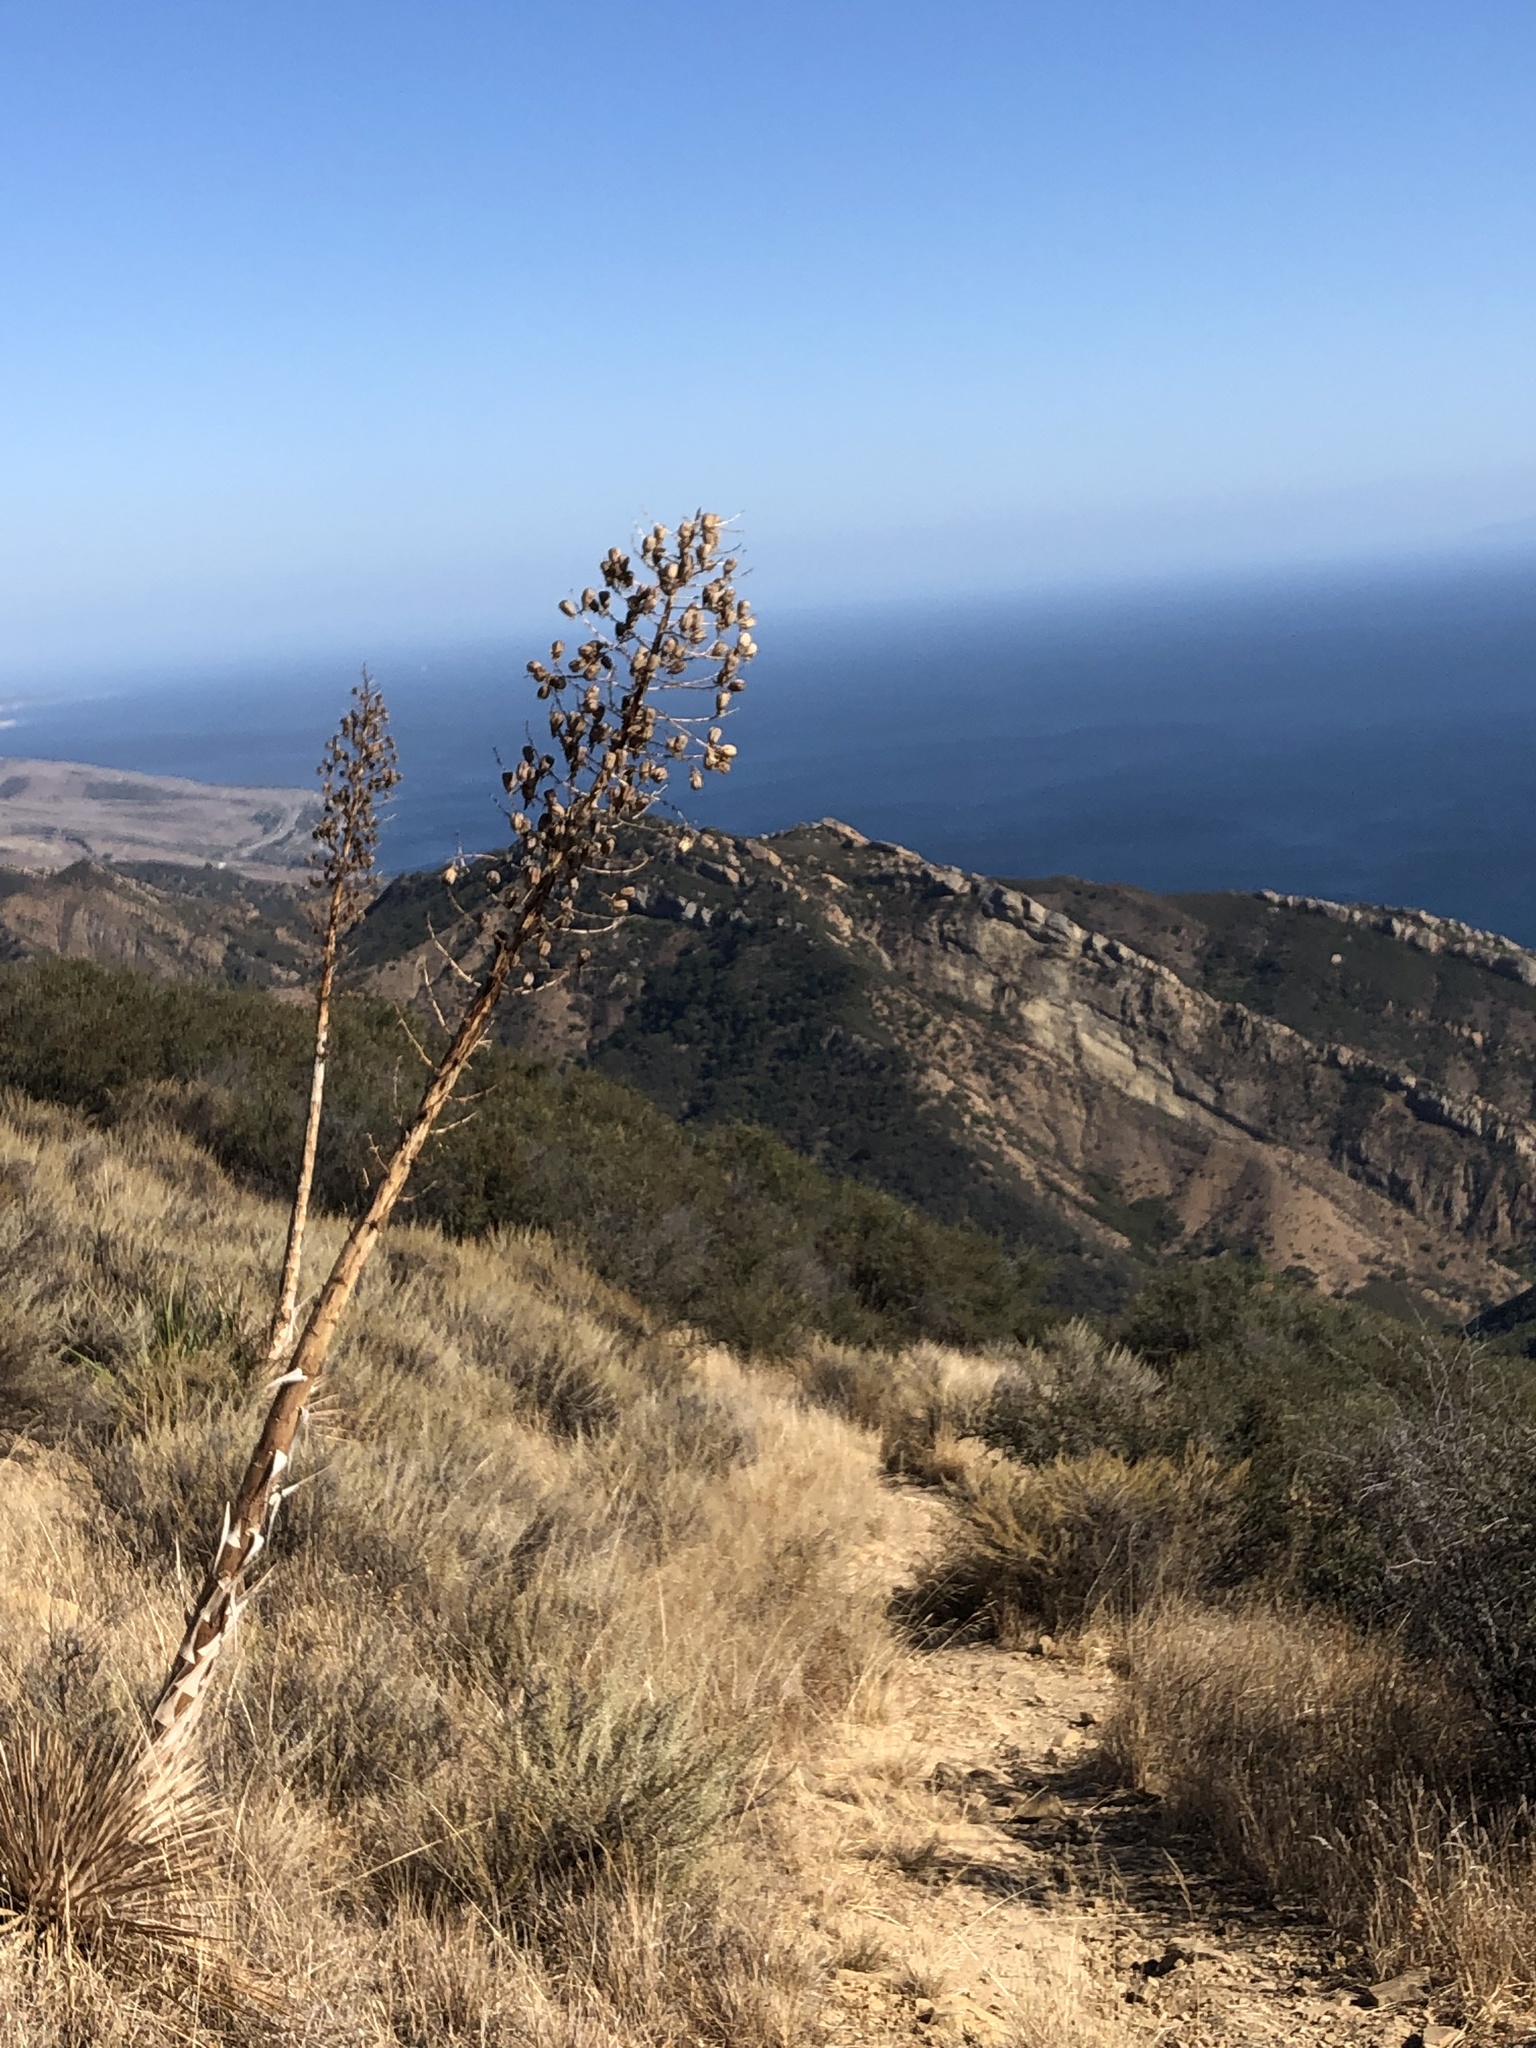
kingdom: Plantae
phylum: Tracheophyta
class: Liliopsida
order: Asparagales
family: Asparagaceae
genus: Hesperoyucca
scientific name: Hesperoyucca whipplei
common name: Our lord's-candle
